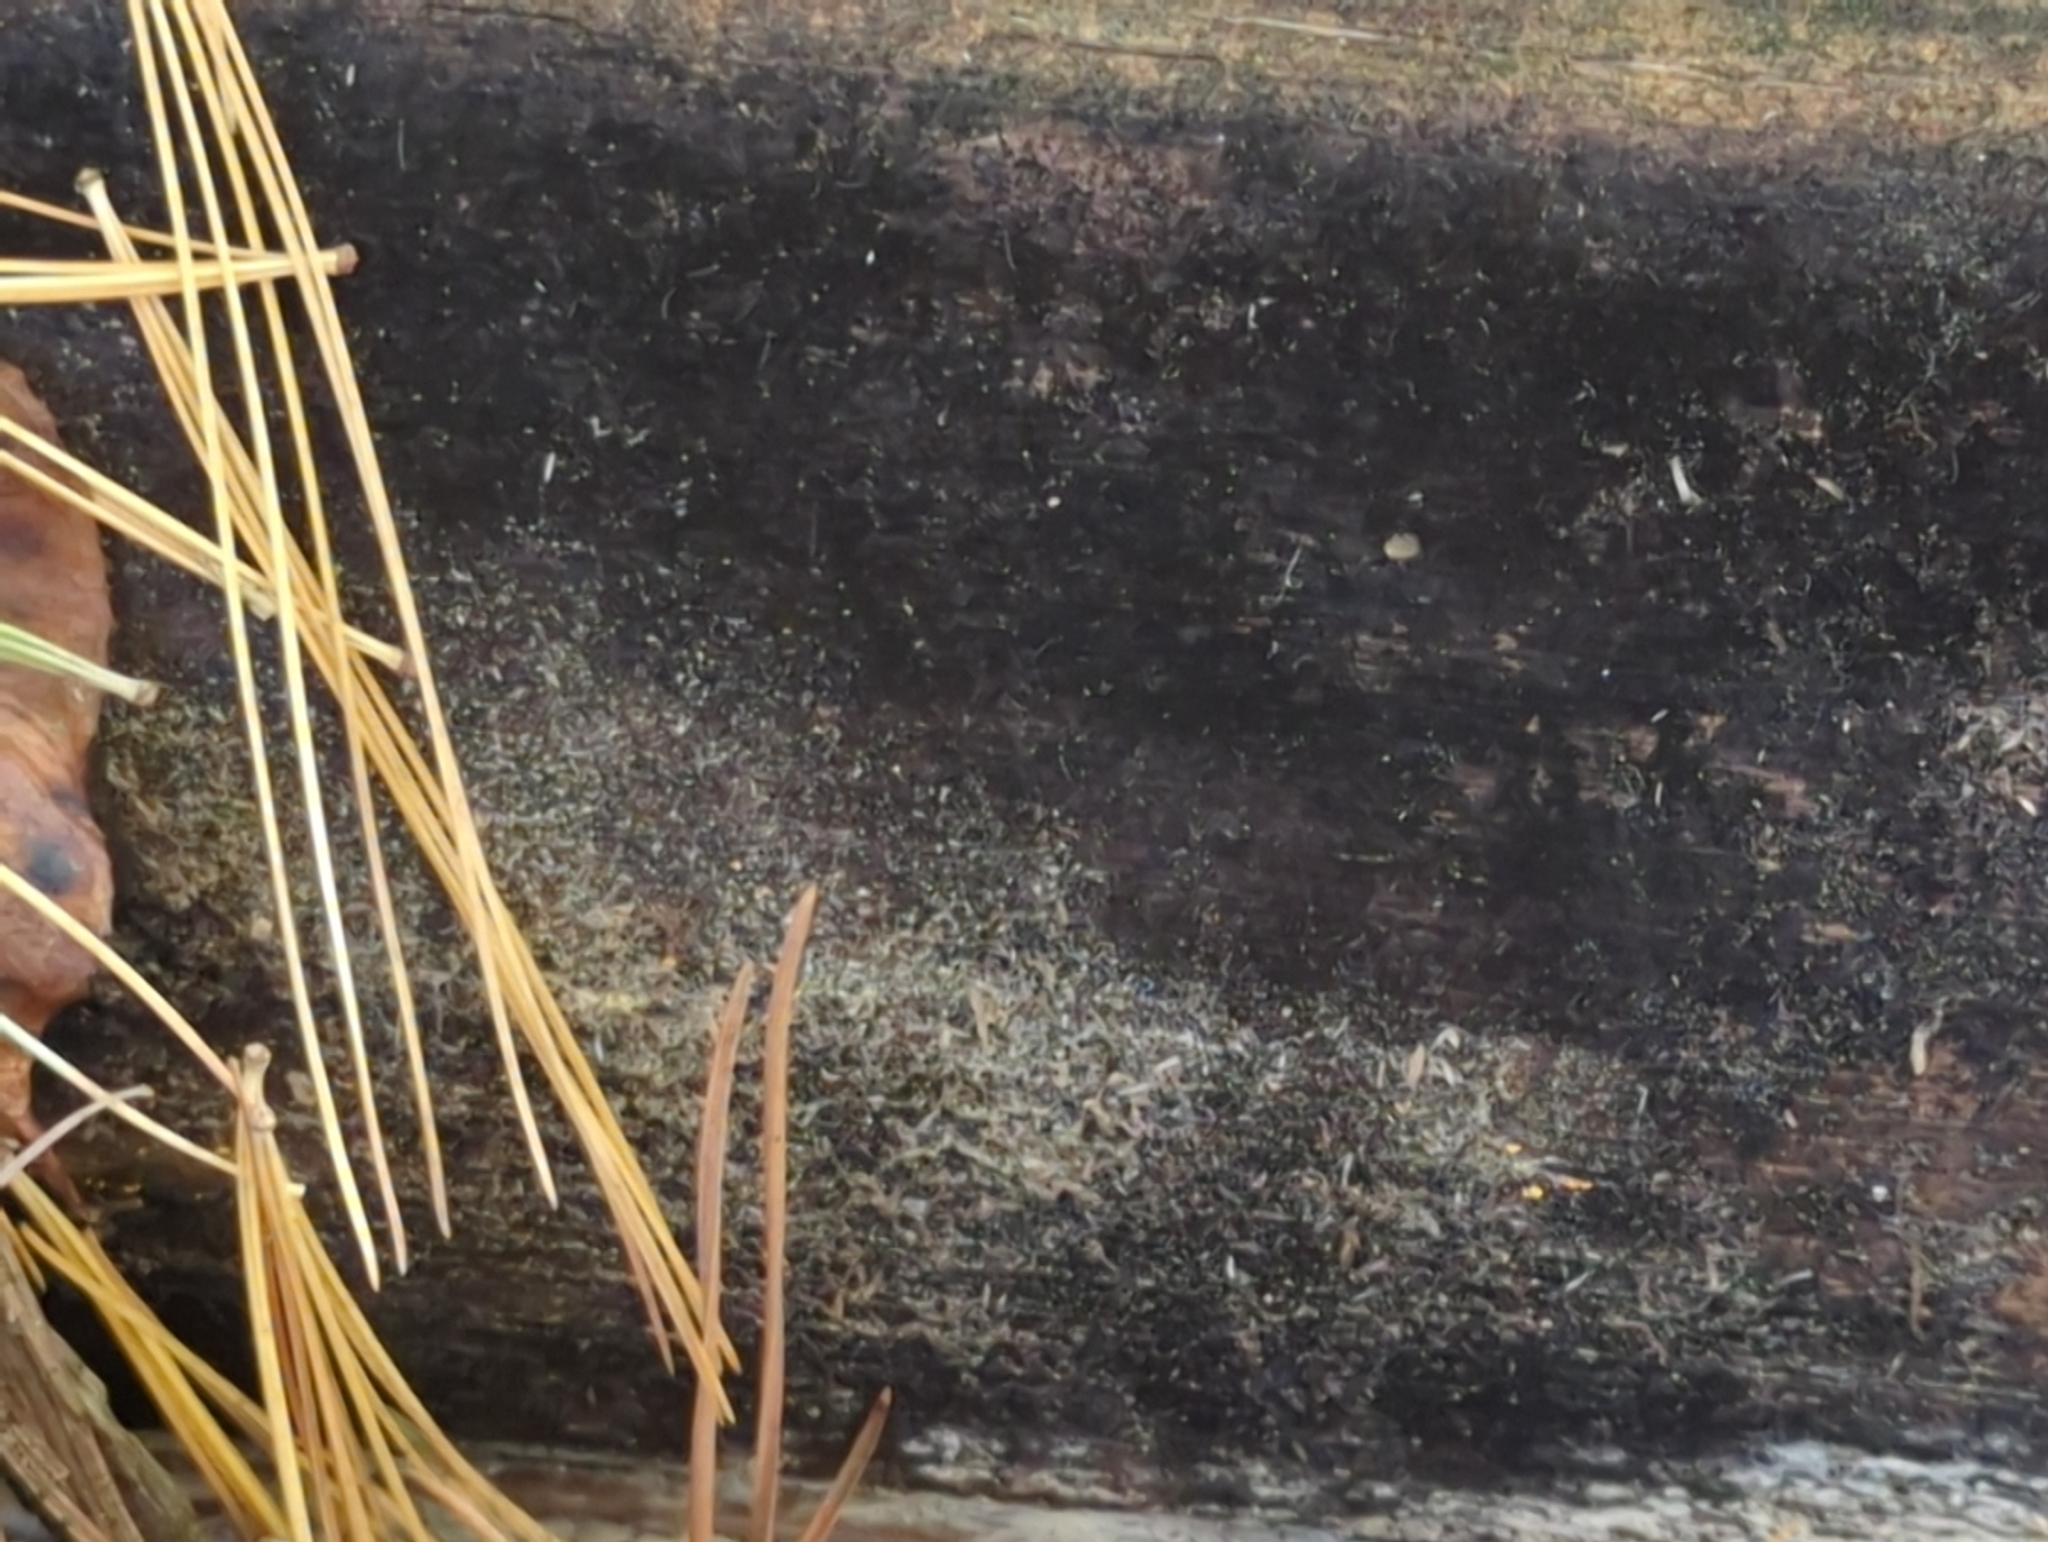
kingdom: Fungi
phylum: Ascomycota
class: Dothideomycetes
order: Mytilinidiales
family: Mytilinidiaceae
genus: Mytilinidion
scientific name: Mytilinidion scolecosporum
